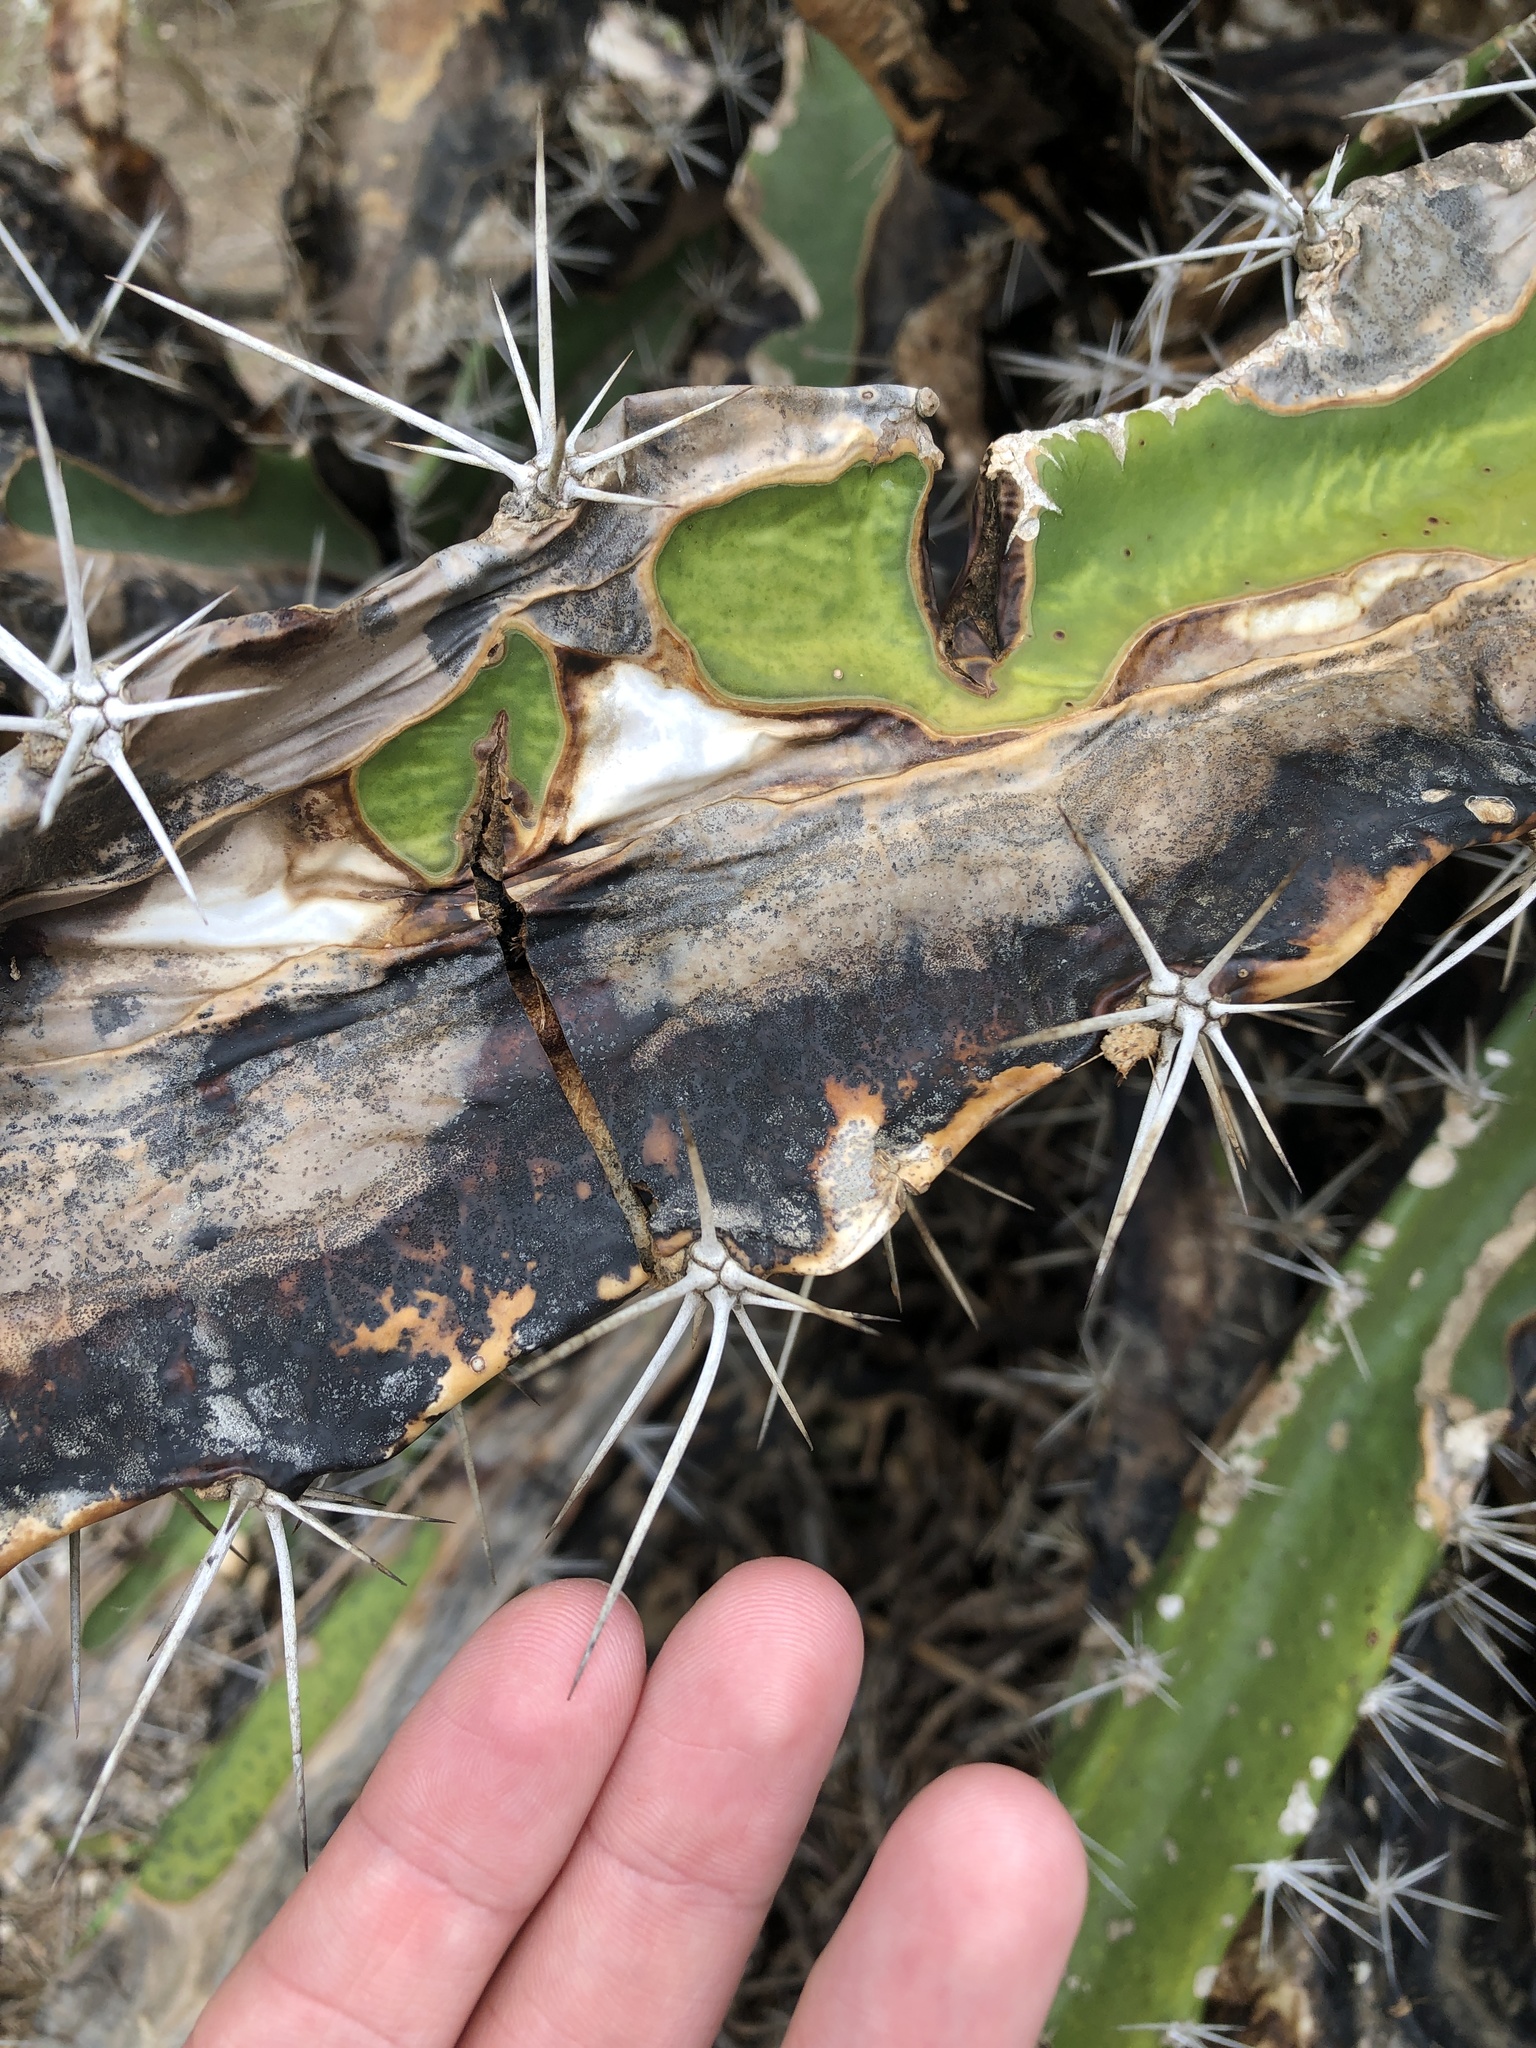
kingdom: Plantae
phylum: Tracheophyta
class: Magnoliopsida
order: Caryophyllales
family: Cactaceae
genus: Acanthocereus
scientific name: Acanthocereus tetragonus
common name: Triangle cactus
